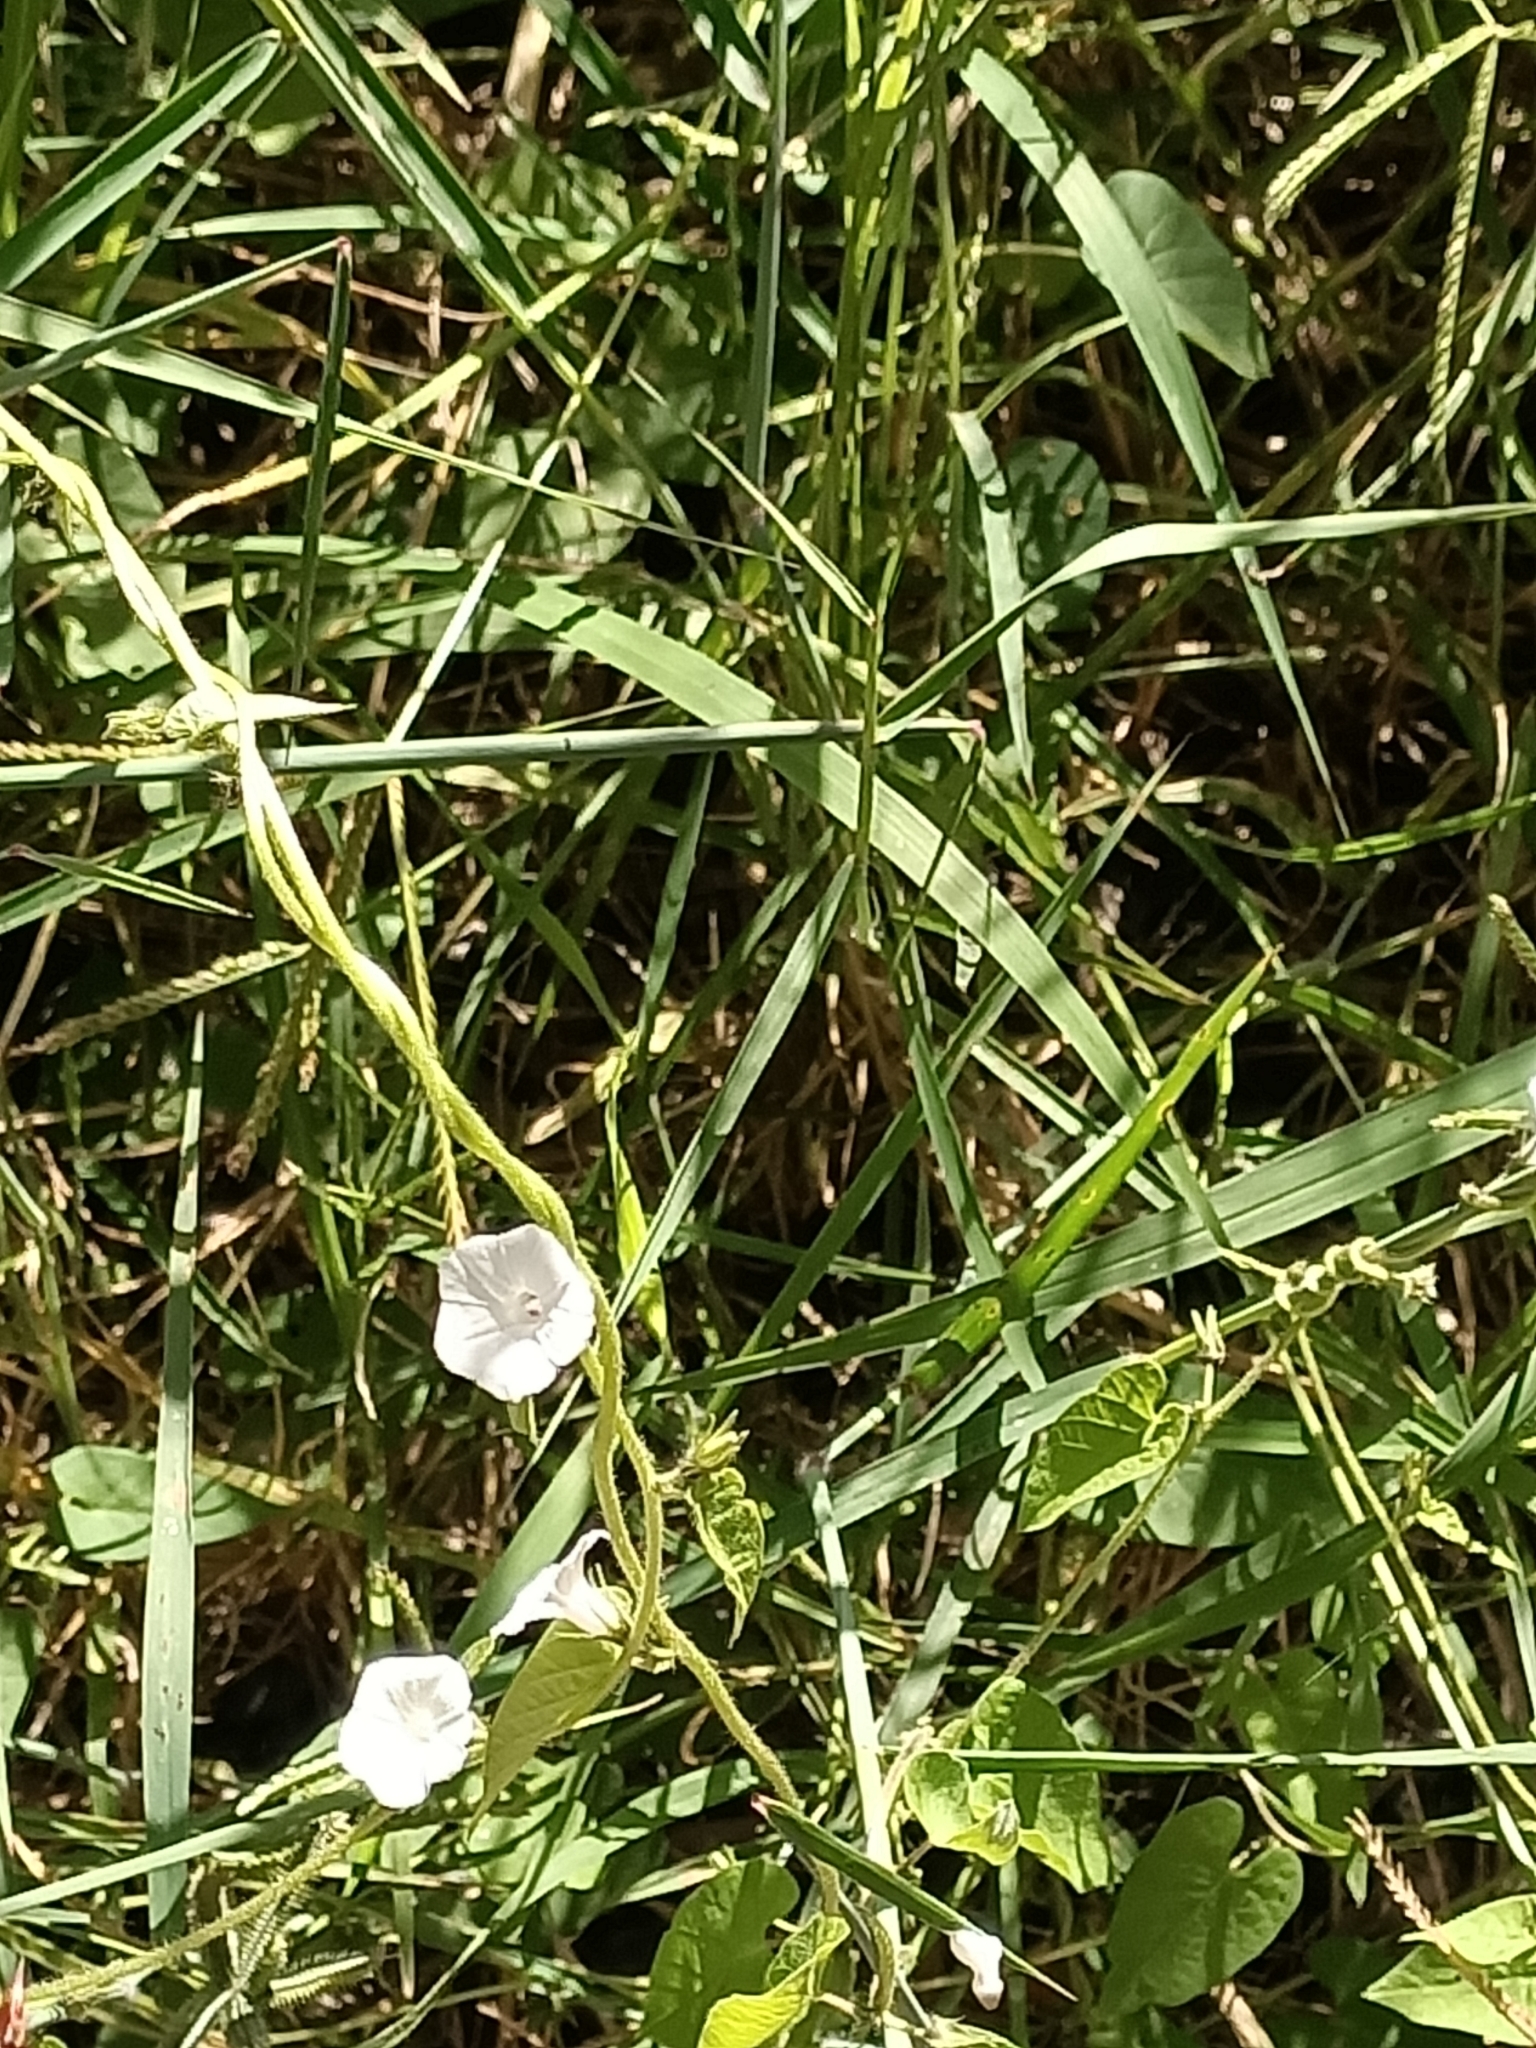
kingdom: Plantae
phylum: Tracheophyta
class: Magnoliopsida
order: Solanales
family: Convolvulaceae
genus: Ipomoea
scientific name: Ipomoea biflora
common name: Bellvine
